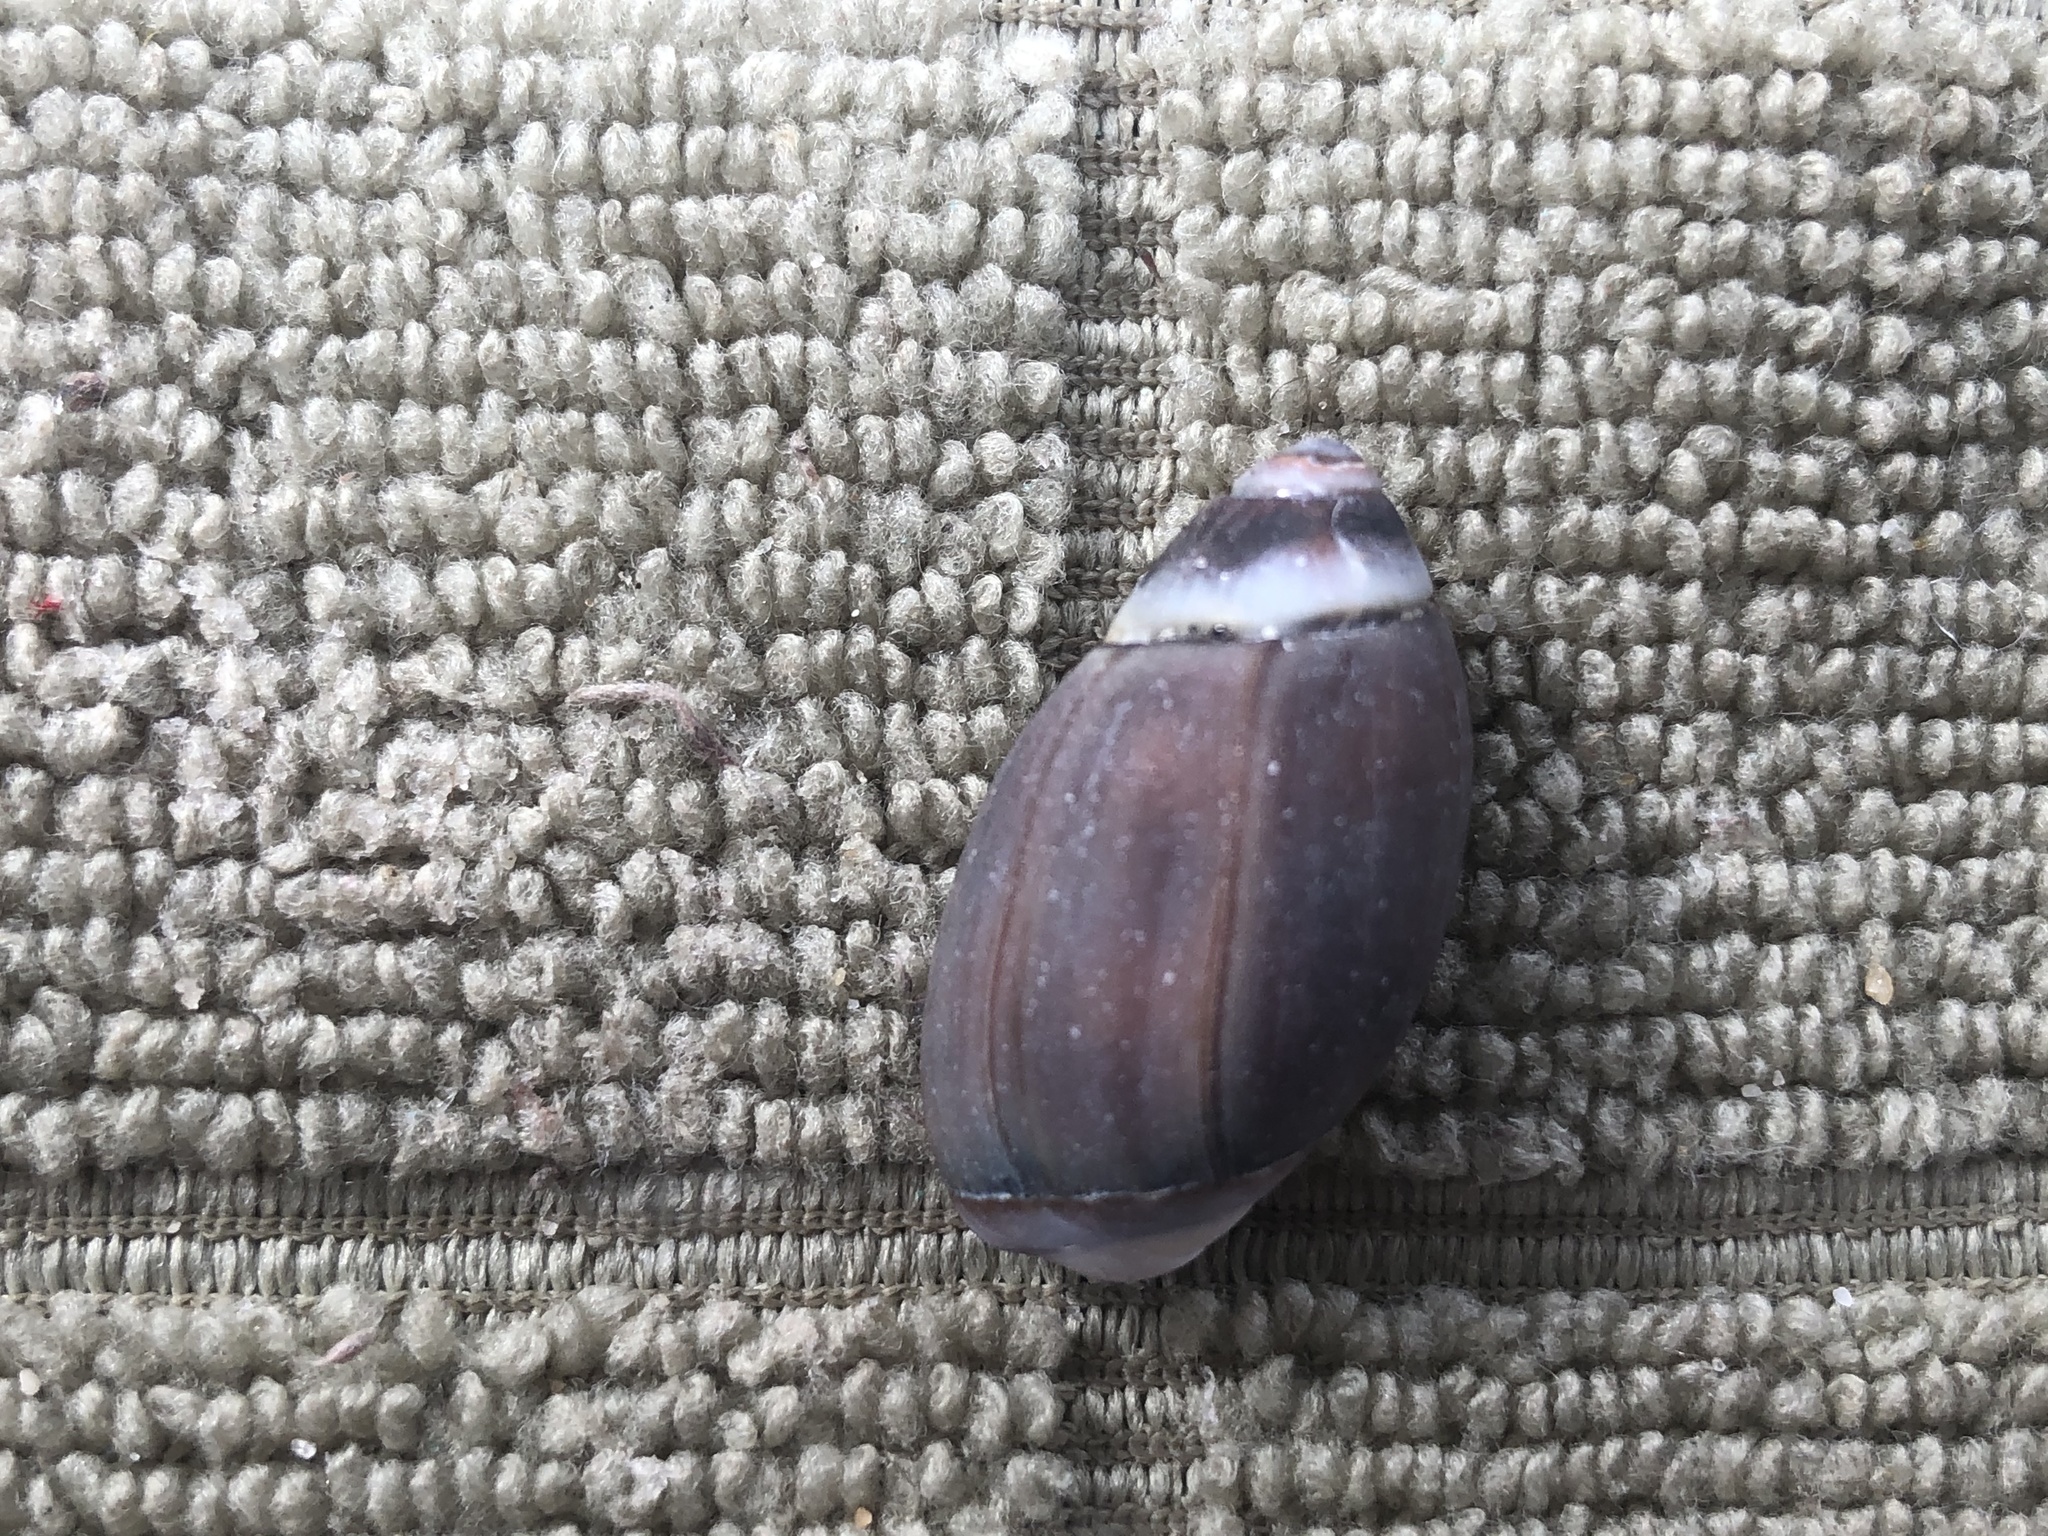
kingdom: Animalia
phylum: Mollusca
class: Gastropoda
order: Neogastropoda
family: Olividae
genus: Callianax
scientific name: Callianax biplicata
